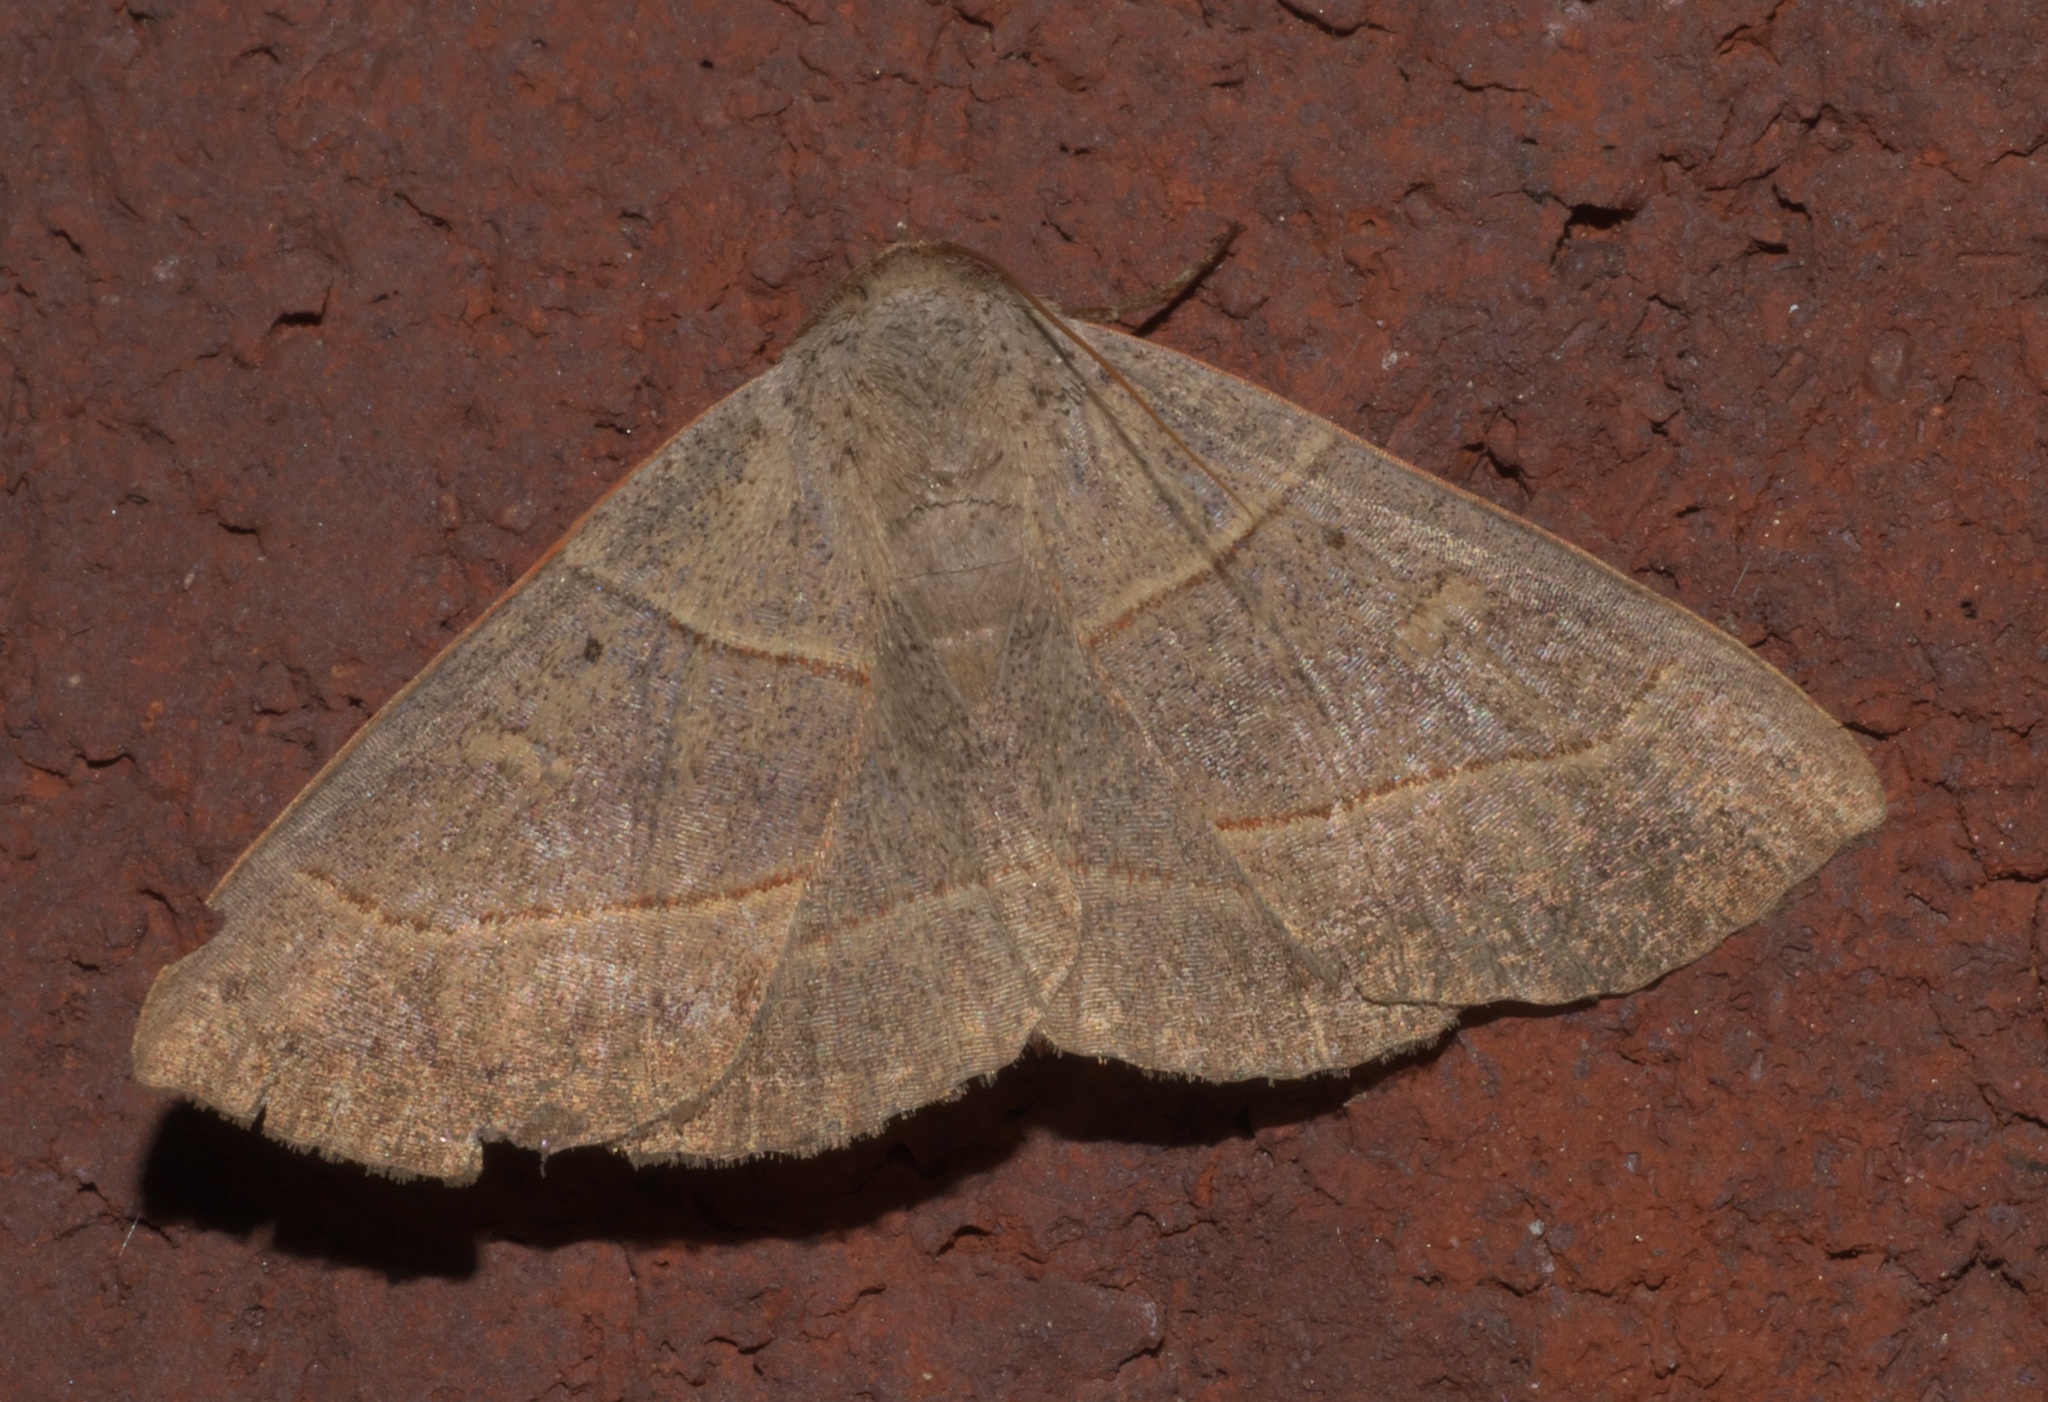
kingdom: Animalia
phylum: Arthropoda
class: Insecta
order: Lepidoptera
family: Erebidae
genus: Panopoda
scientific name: Panopoda rufimargo
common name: Red-lined panopoda moth
